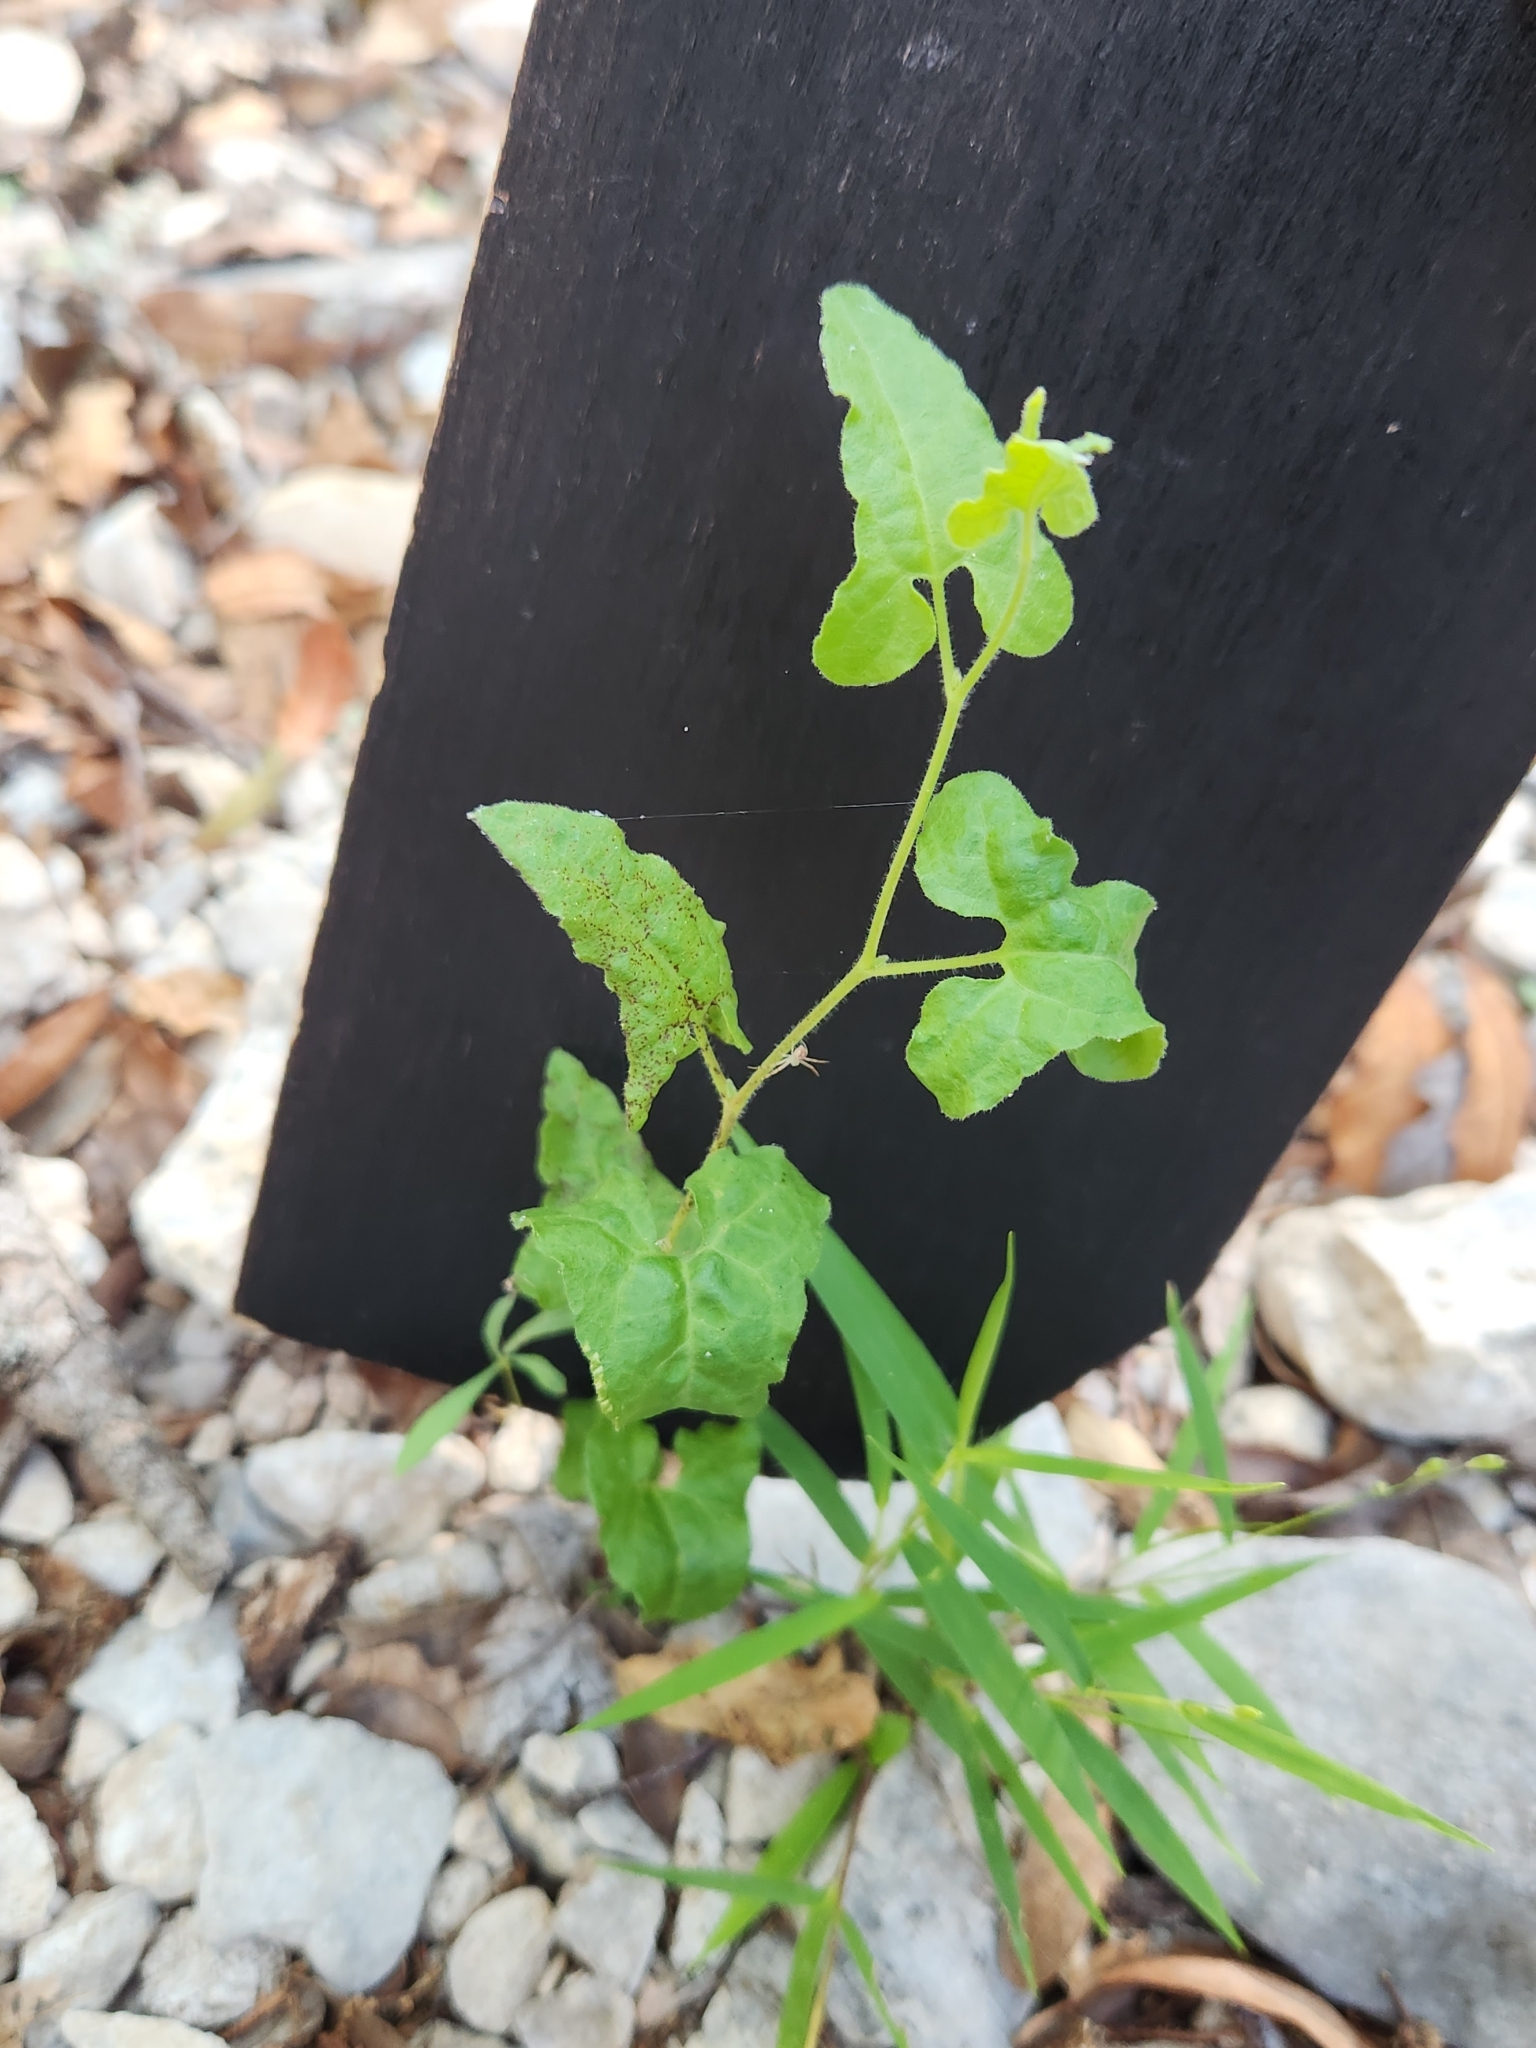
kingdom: Plantae
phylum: Tracheophyta
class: Magnoliopsida
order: Piperales
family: Aristolochiaceae
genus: Aristolochia
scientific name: Aristolochia coryi
